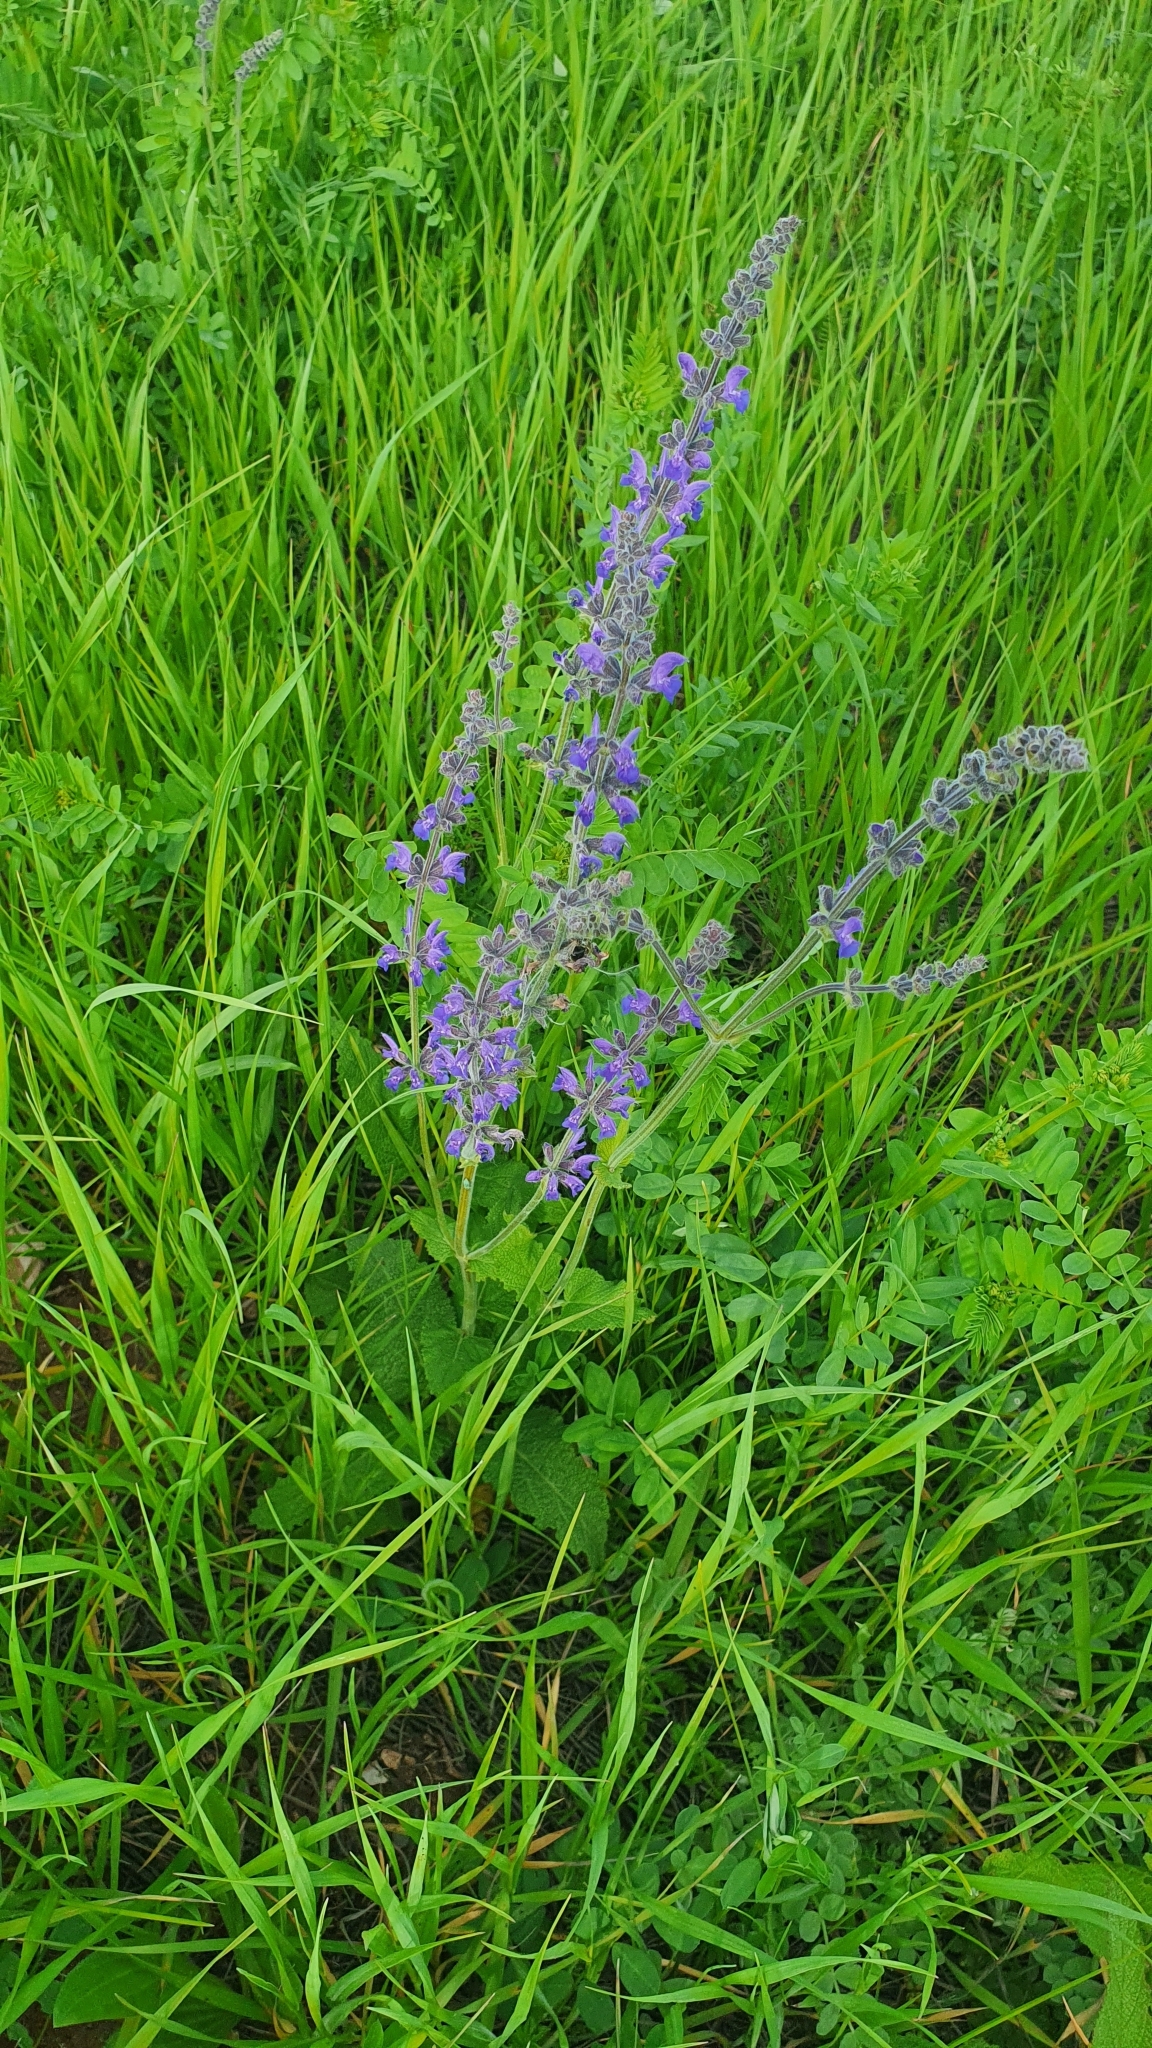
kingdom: Plantae
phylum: Tracheophyta
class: Magnoliopsida
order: Lamiales
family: Lamiaceae
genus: Salvia
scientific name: Salvia dumetorum
